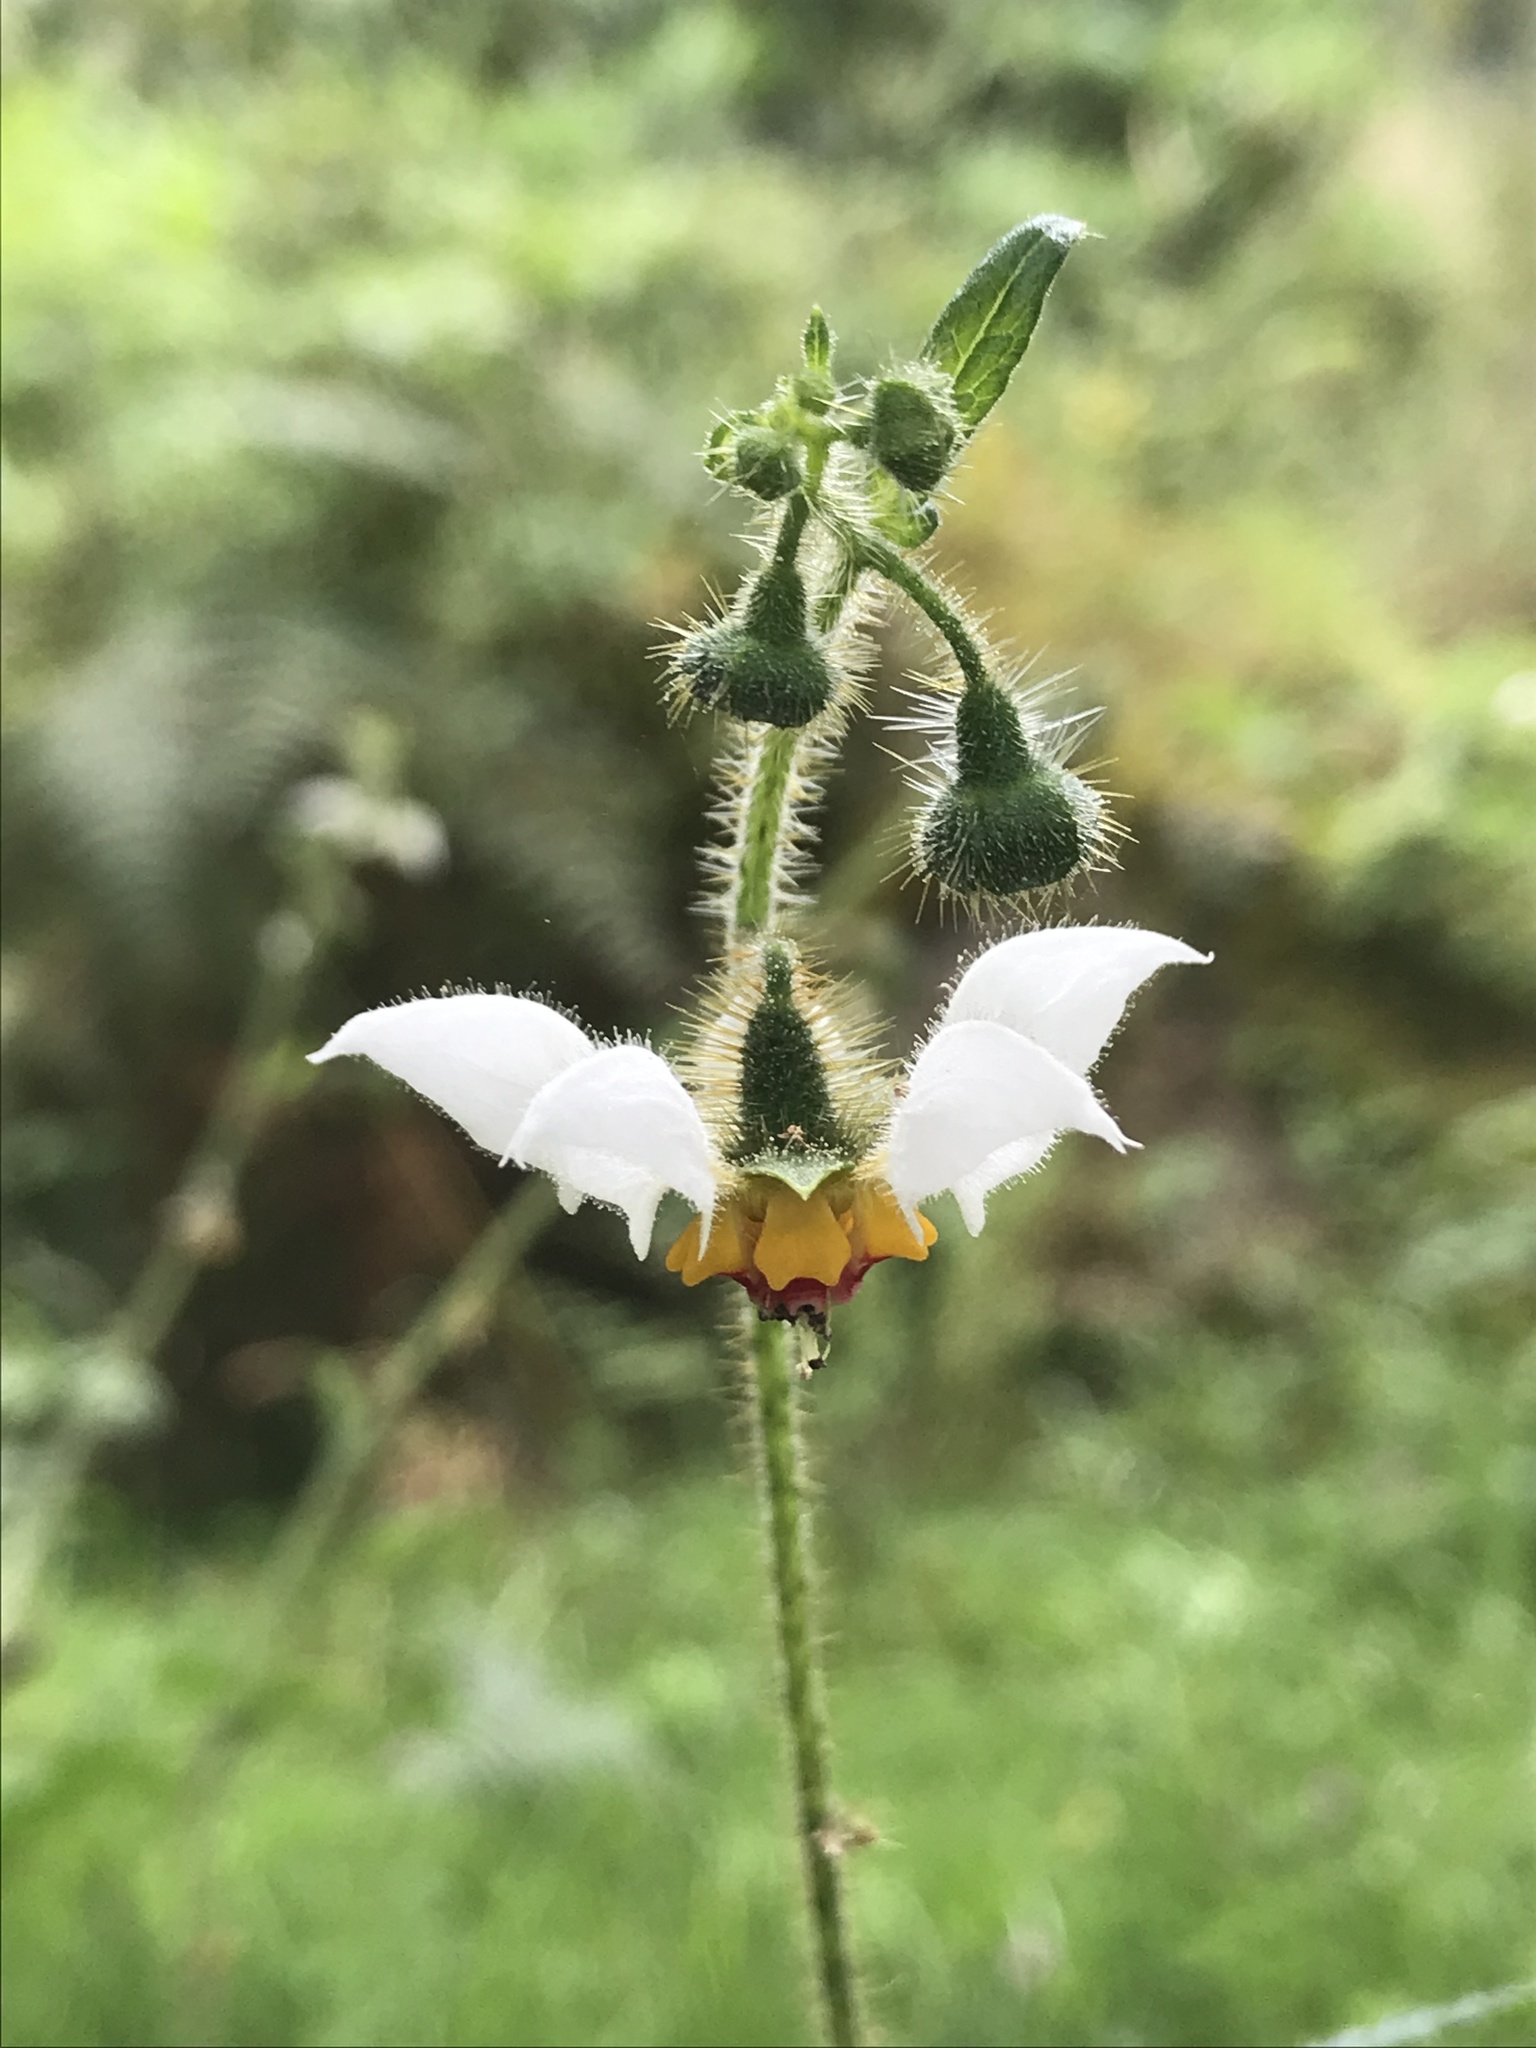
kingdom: Plantae
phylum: Tracheophyta
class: Magnoliopsida
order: Cornales
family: Loasaceae
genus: Nasa
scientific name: Nasa triphylla
